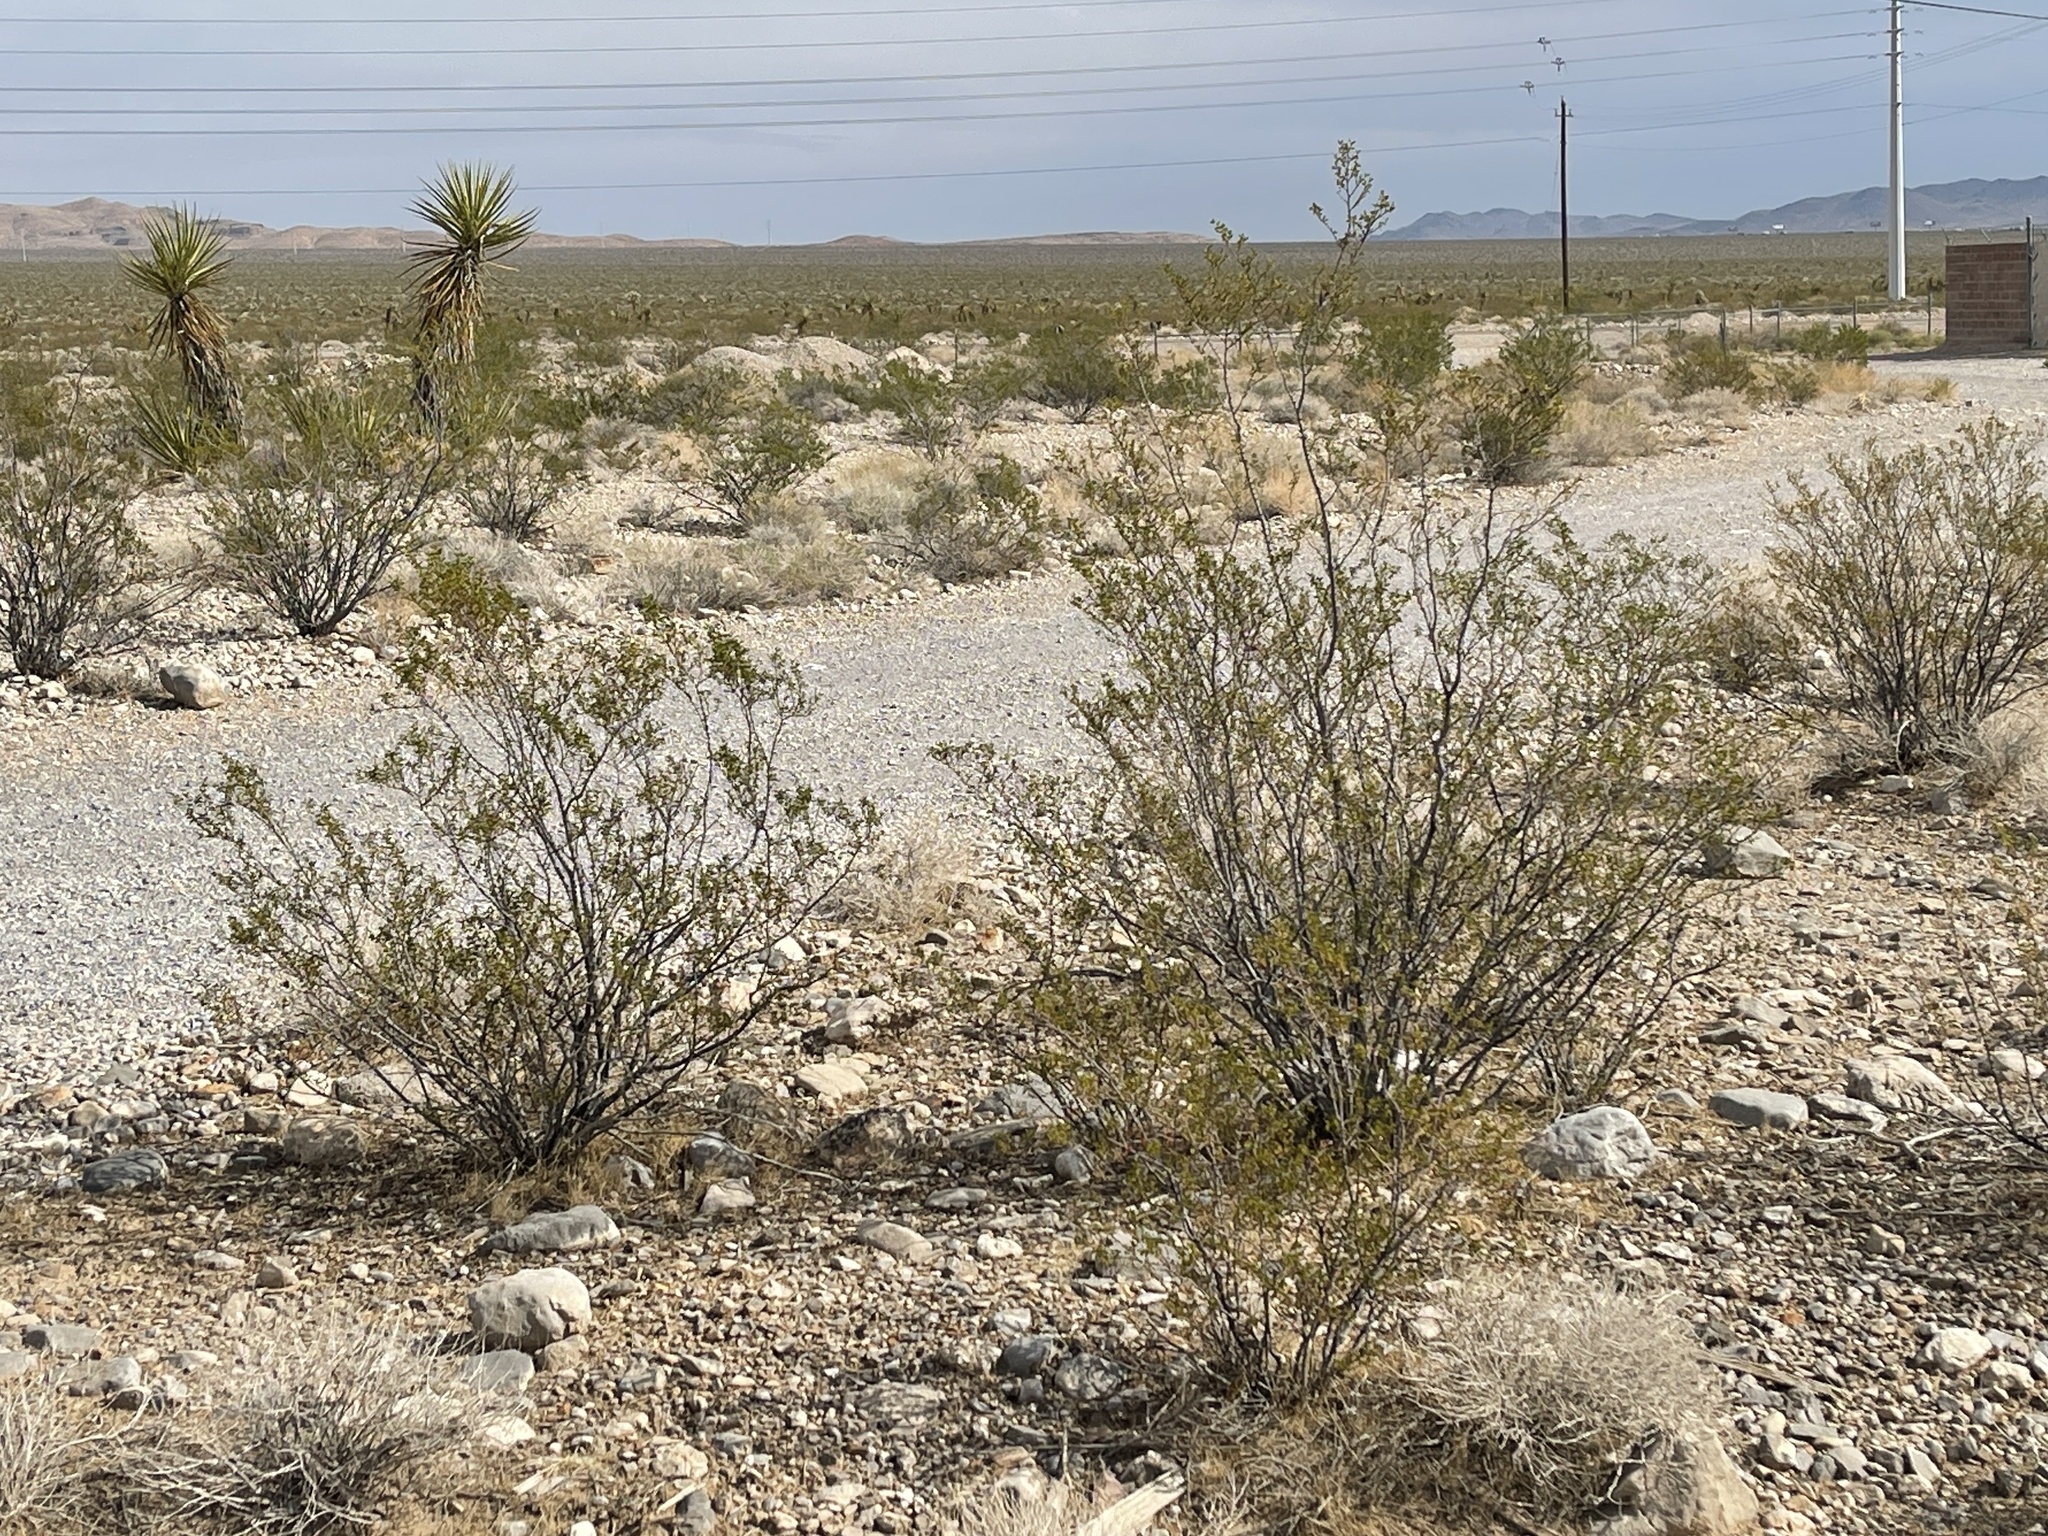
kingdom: Plantae
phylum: Tracheophyta
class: Magnoliopsida
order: Zygophyllales
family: Zygophyllaceae
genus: Larrea
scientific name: Larrea tridentata
